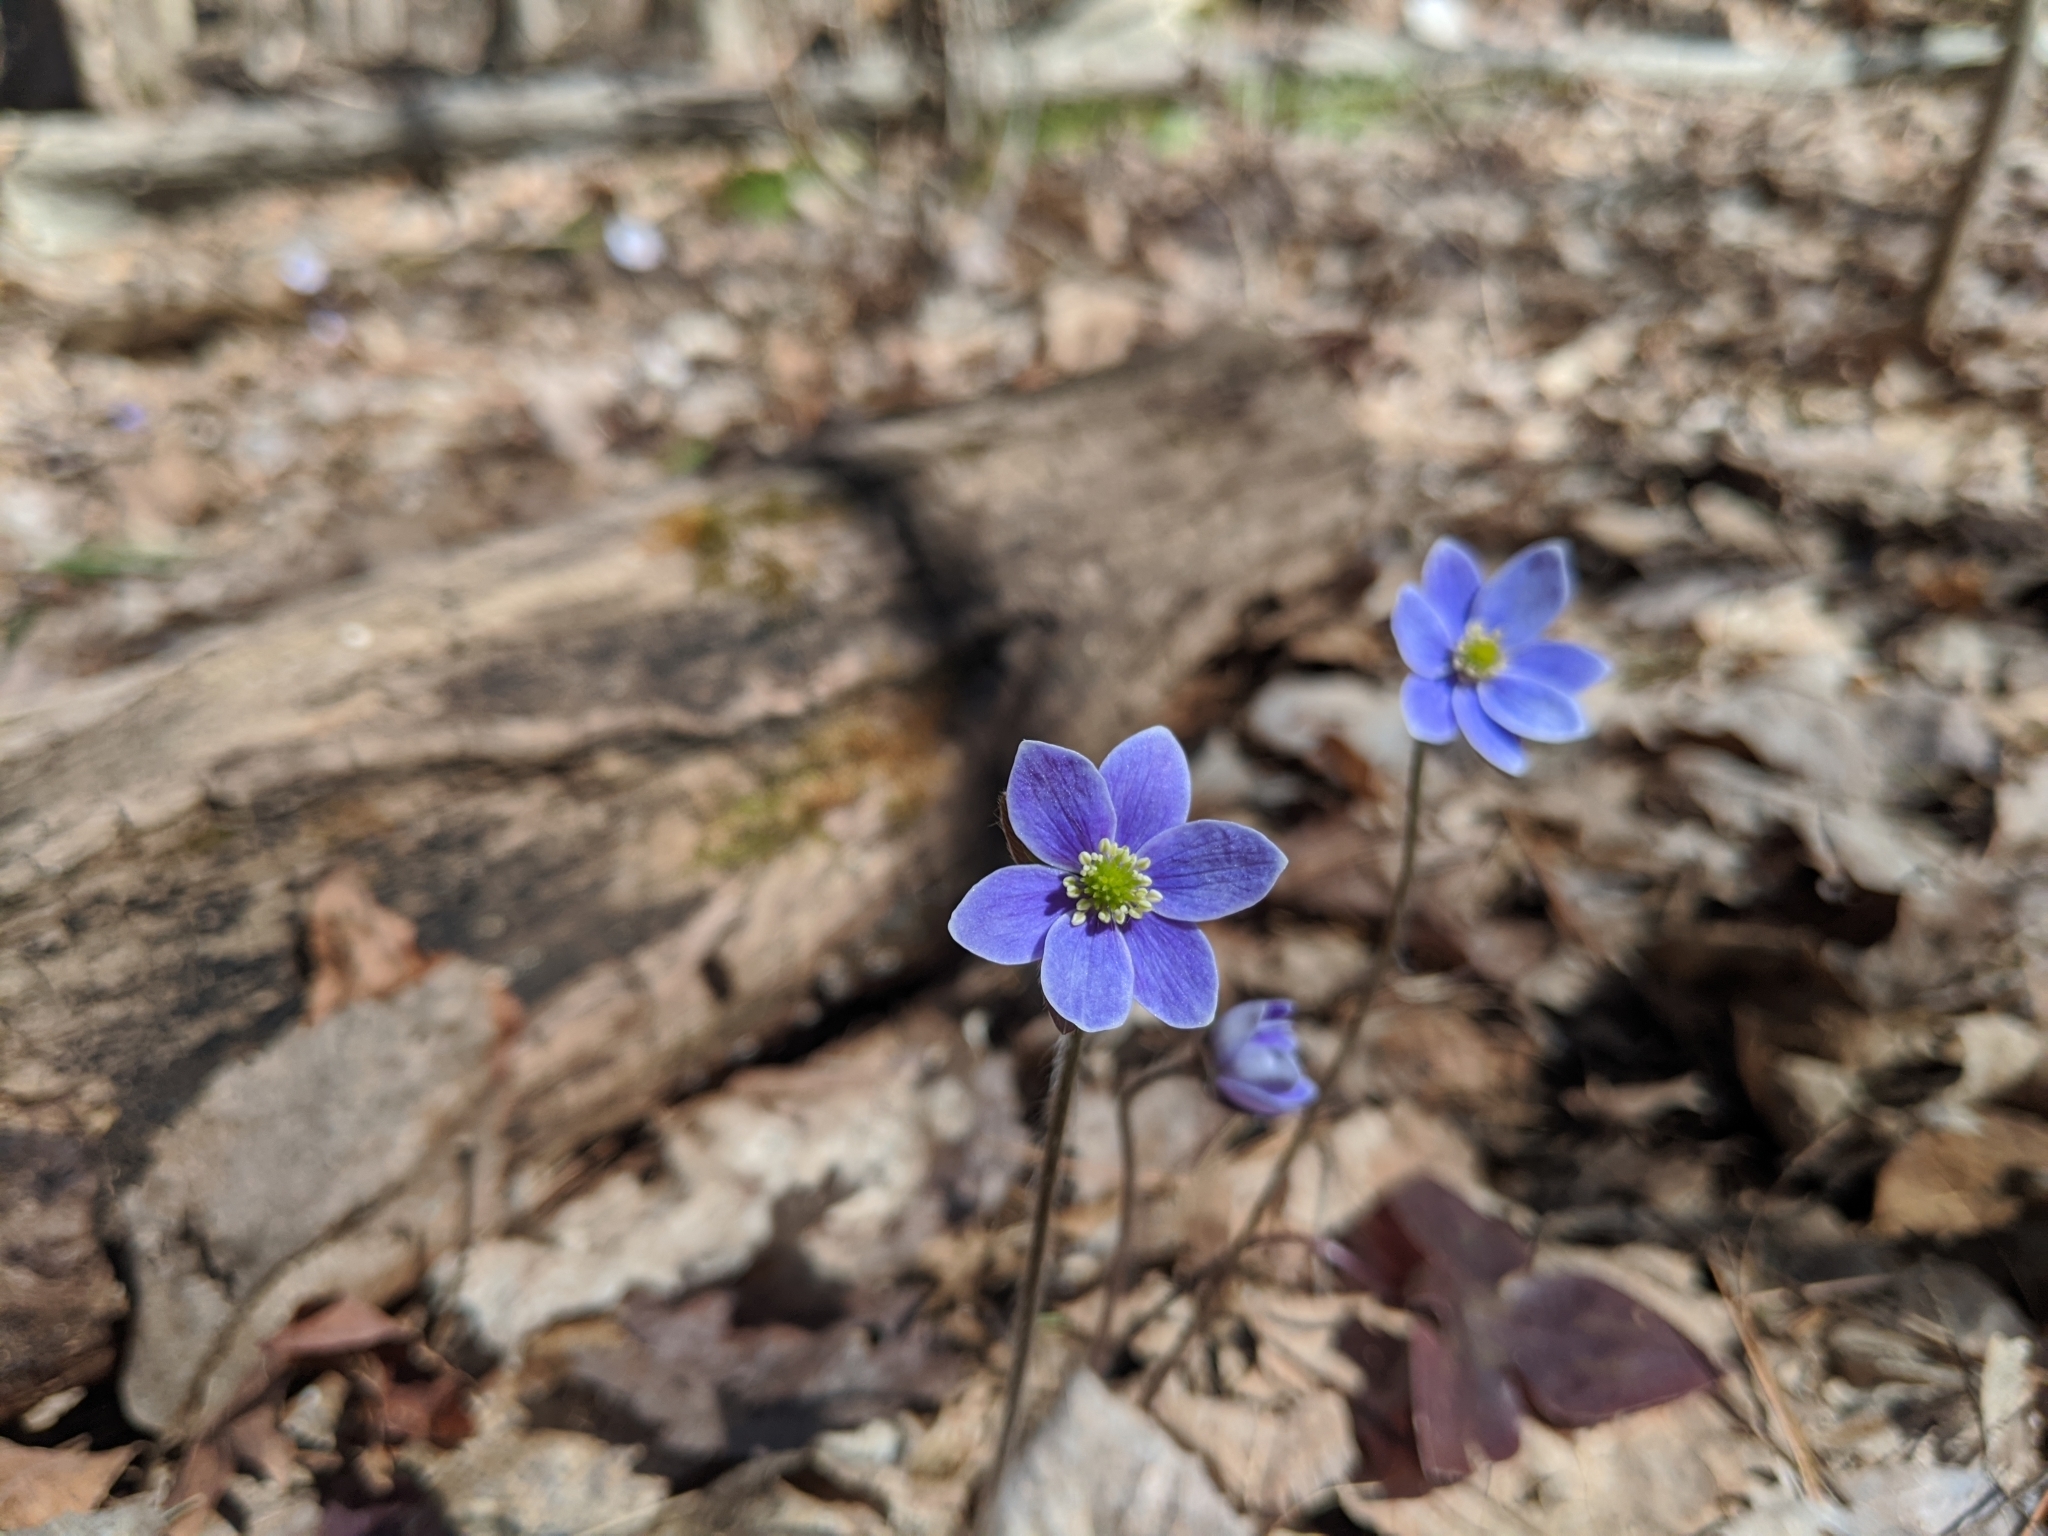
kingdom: Plantae
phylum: Tracheophyta
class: Magnoliopsida
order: Ranunculales
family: Ranunculaceae
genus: Hepatica
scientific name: Hepatica acutiloba
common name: Sharp-lobed hepatica
